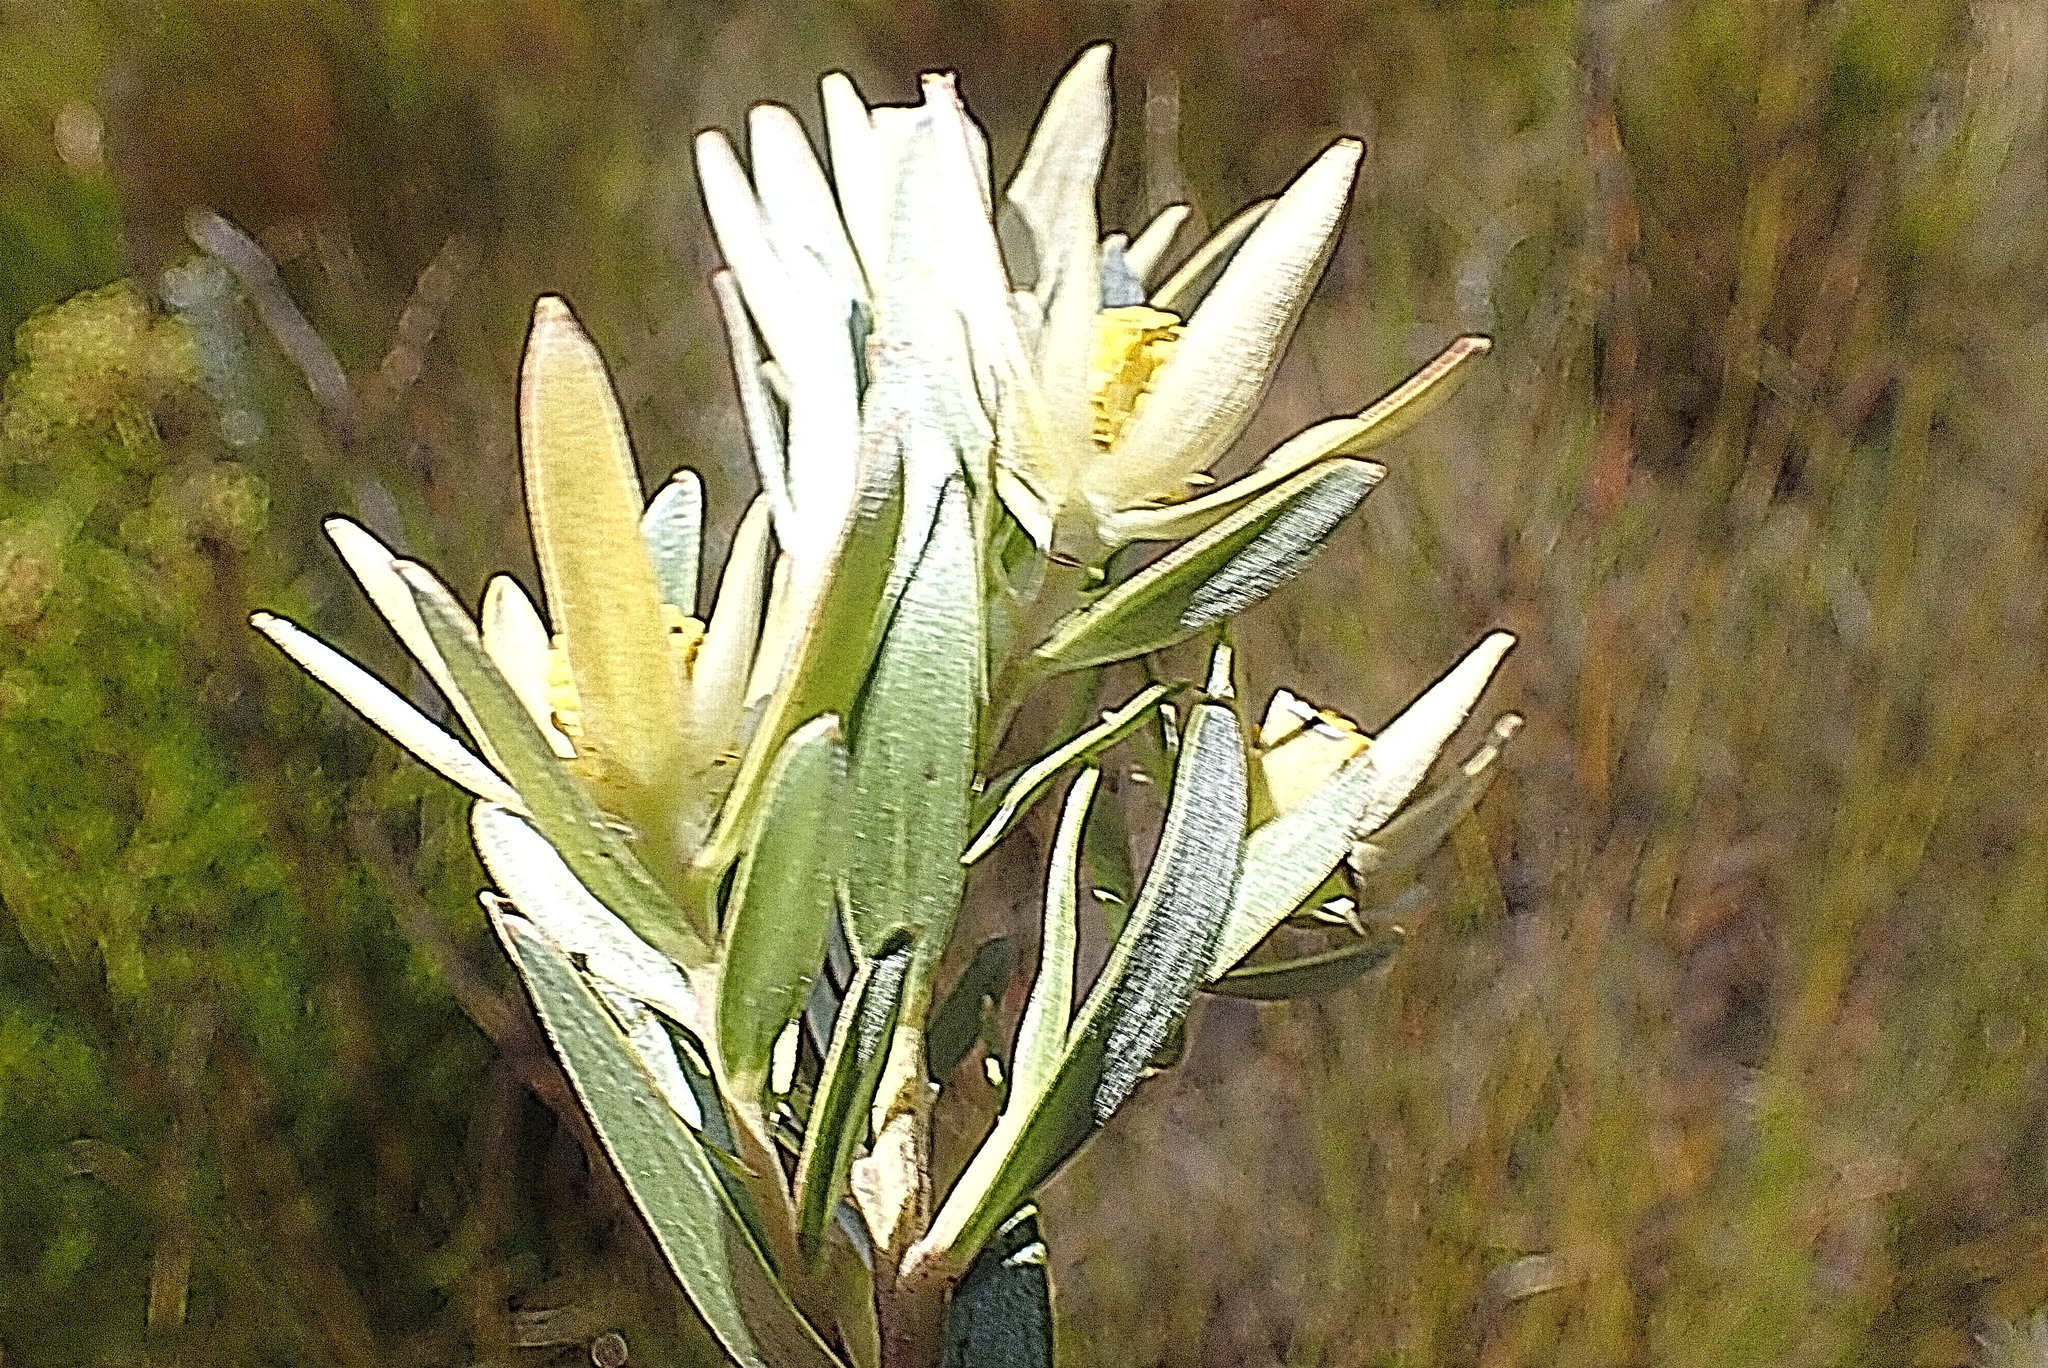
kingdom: Plantae
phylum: Tracheophyta
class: Magnoliopsida
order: Proteales
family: Proteaceae
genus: Leucadendron
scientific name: Leucadendron uliginosum
